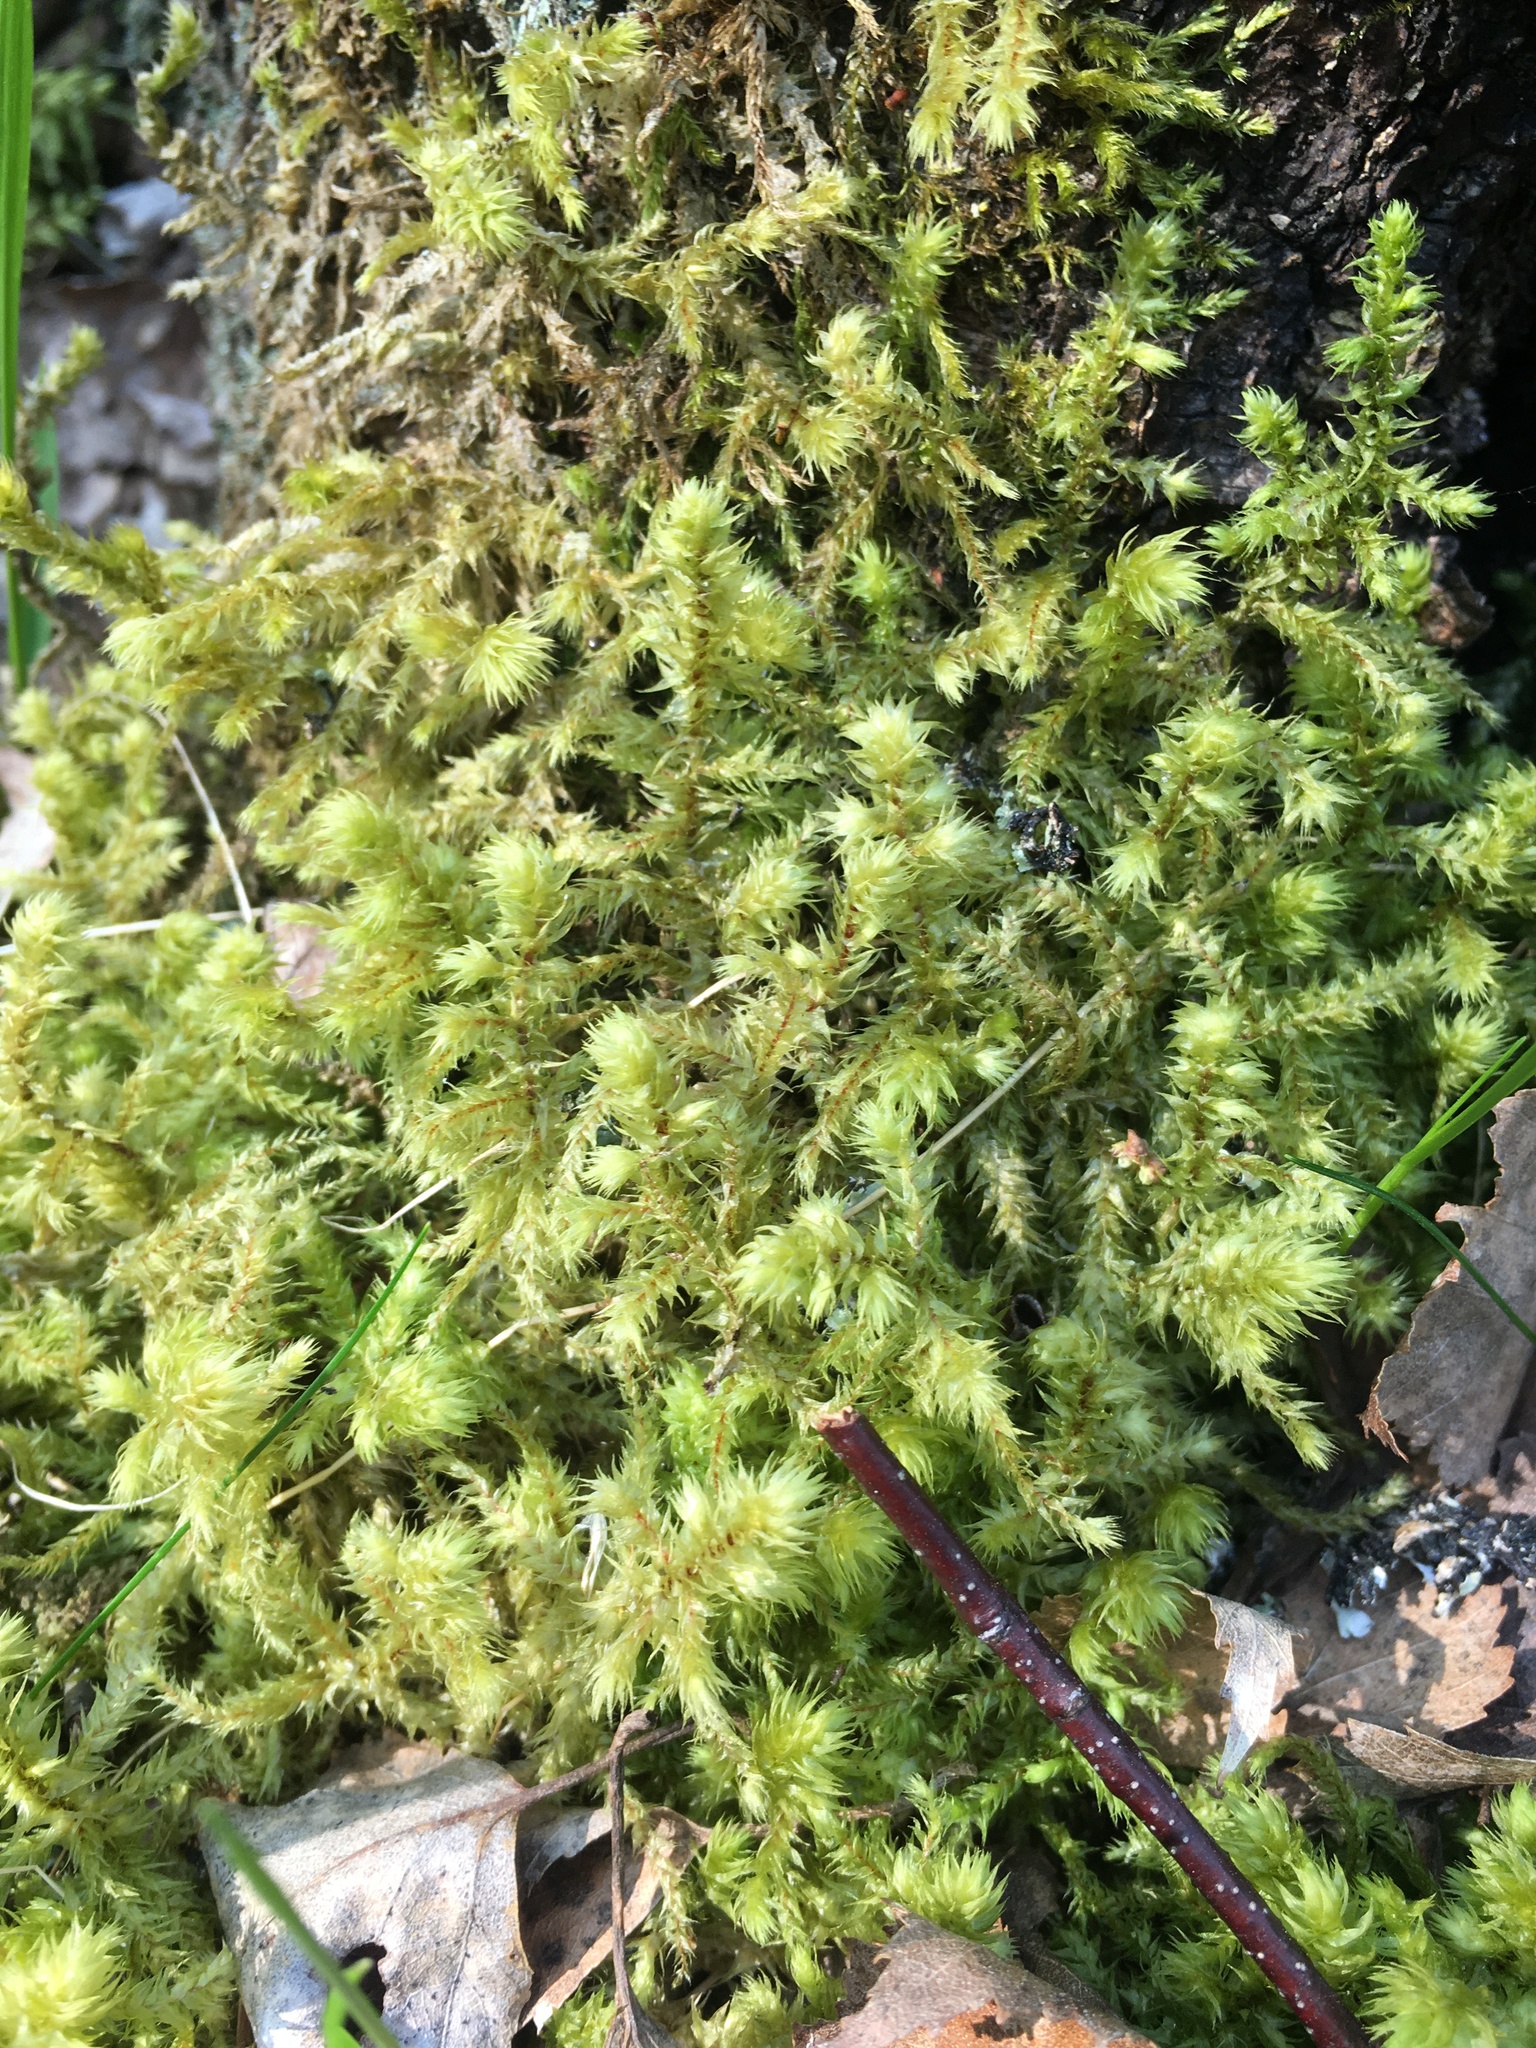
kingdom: Plantae
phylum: Bryophyta
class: Bryopsida
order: Hypnales
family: Hylocomiaceae
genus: Hylocomiadelphus
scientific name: Hylocomiadelphus triquetrus
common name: Rough goose neck moss
